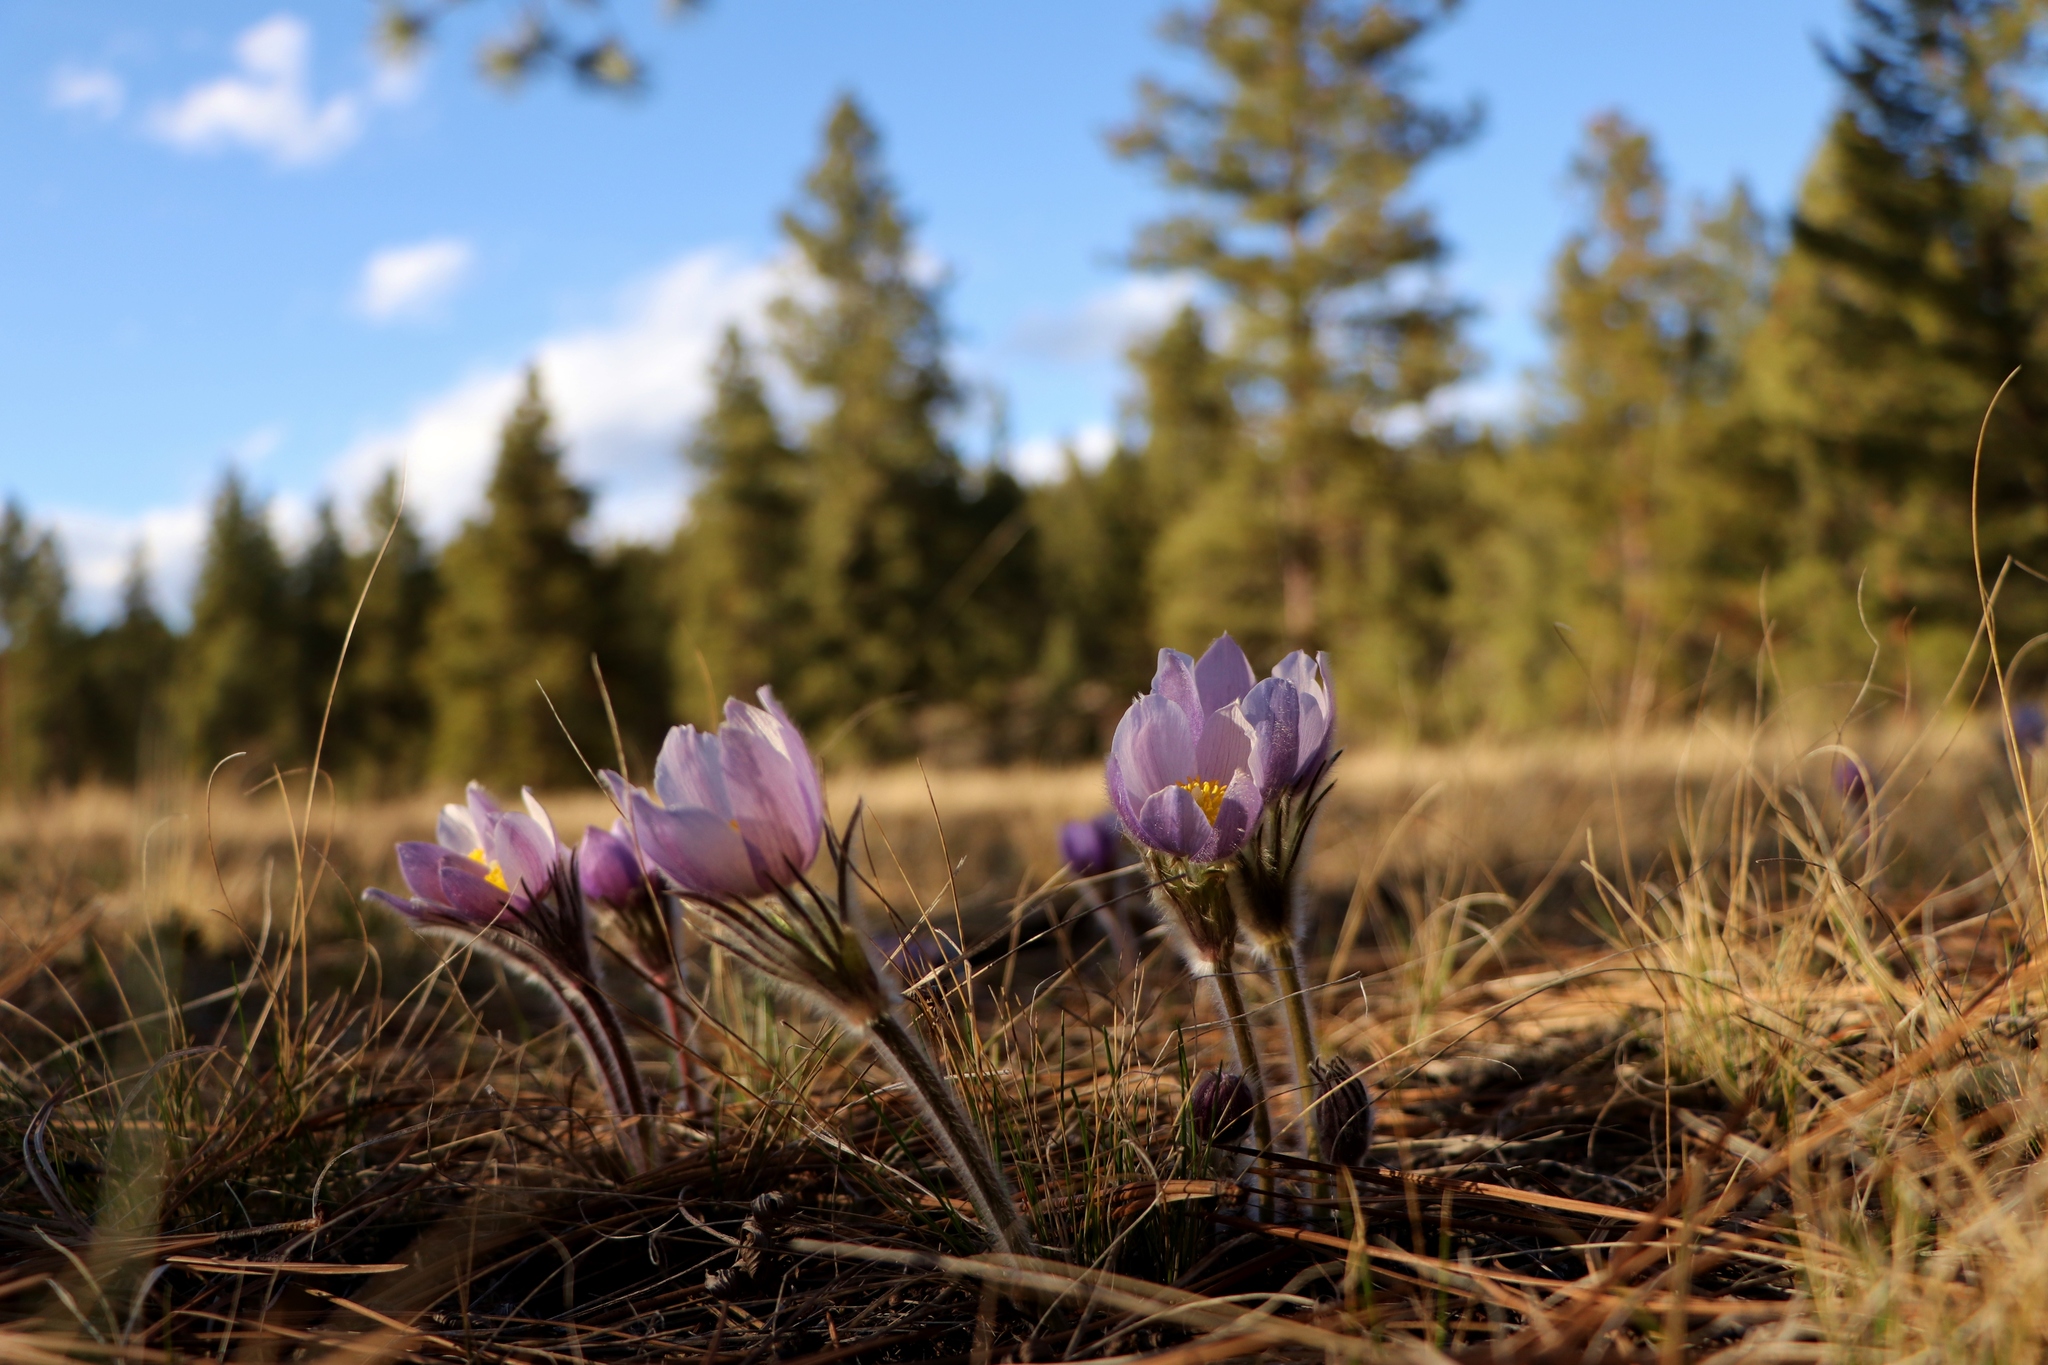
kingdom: Plantae
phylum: Tracheophyta
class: Magnoliopsida
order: Ranunculales
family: Ranunculaceae
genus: Pulsatilla
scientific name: Pulsatilla nuttalliana
